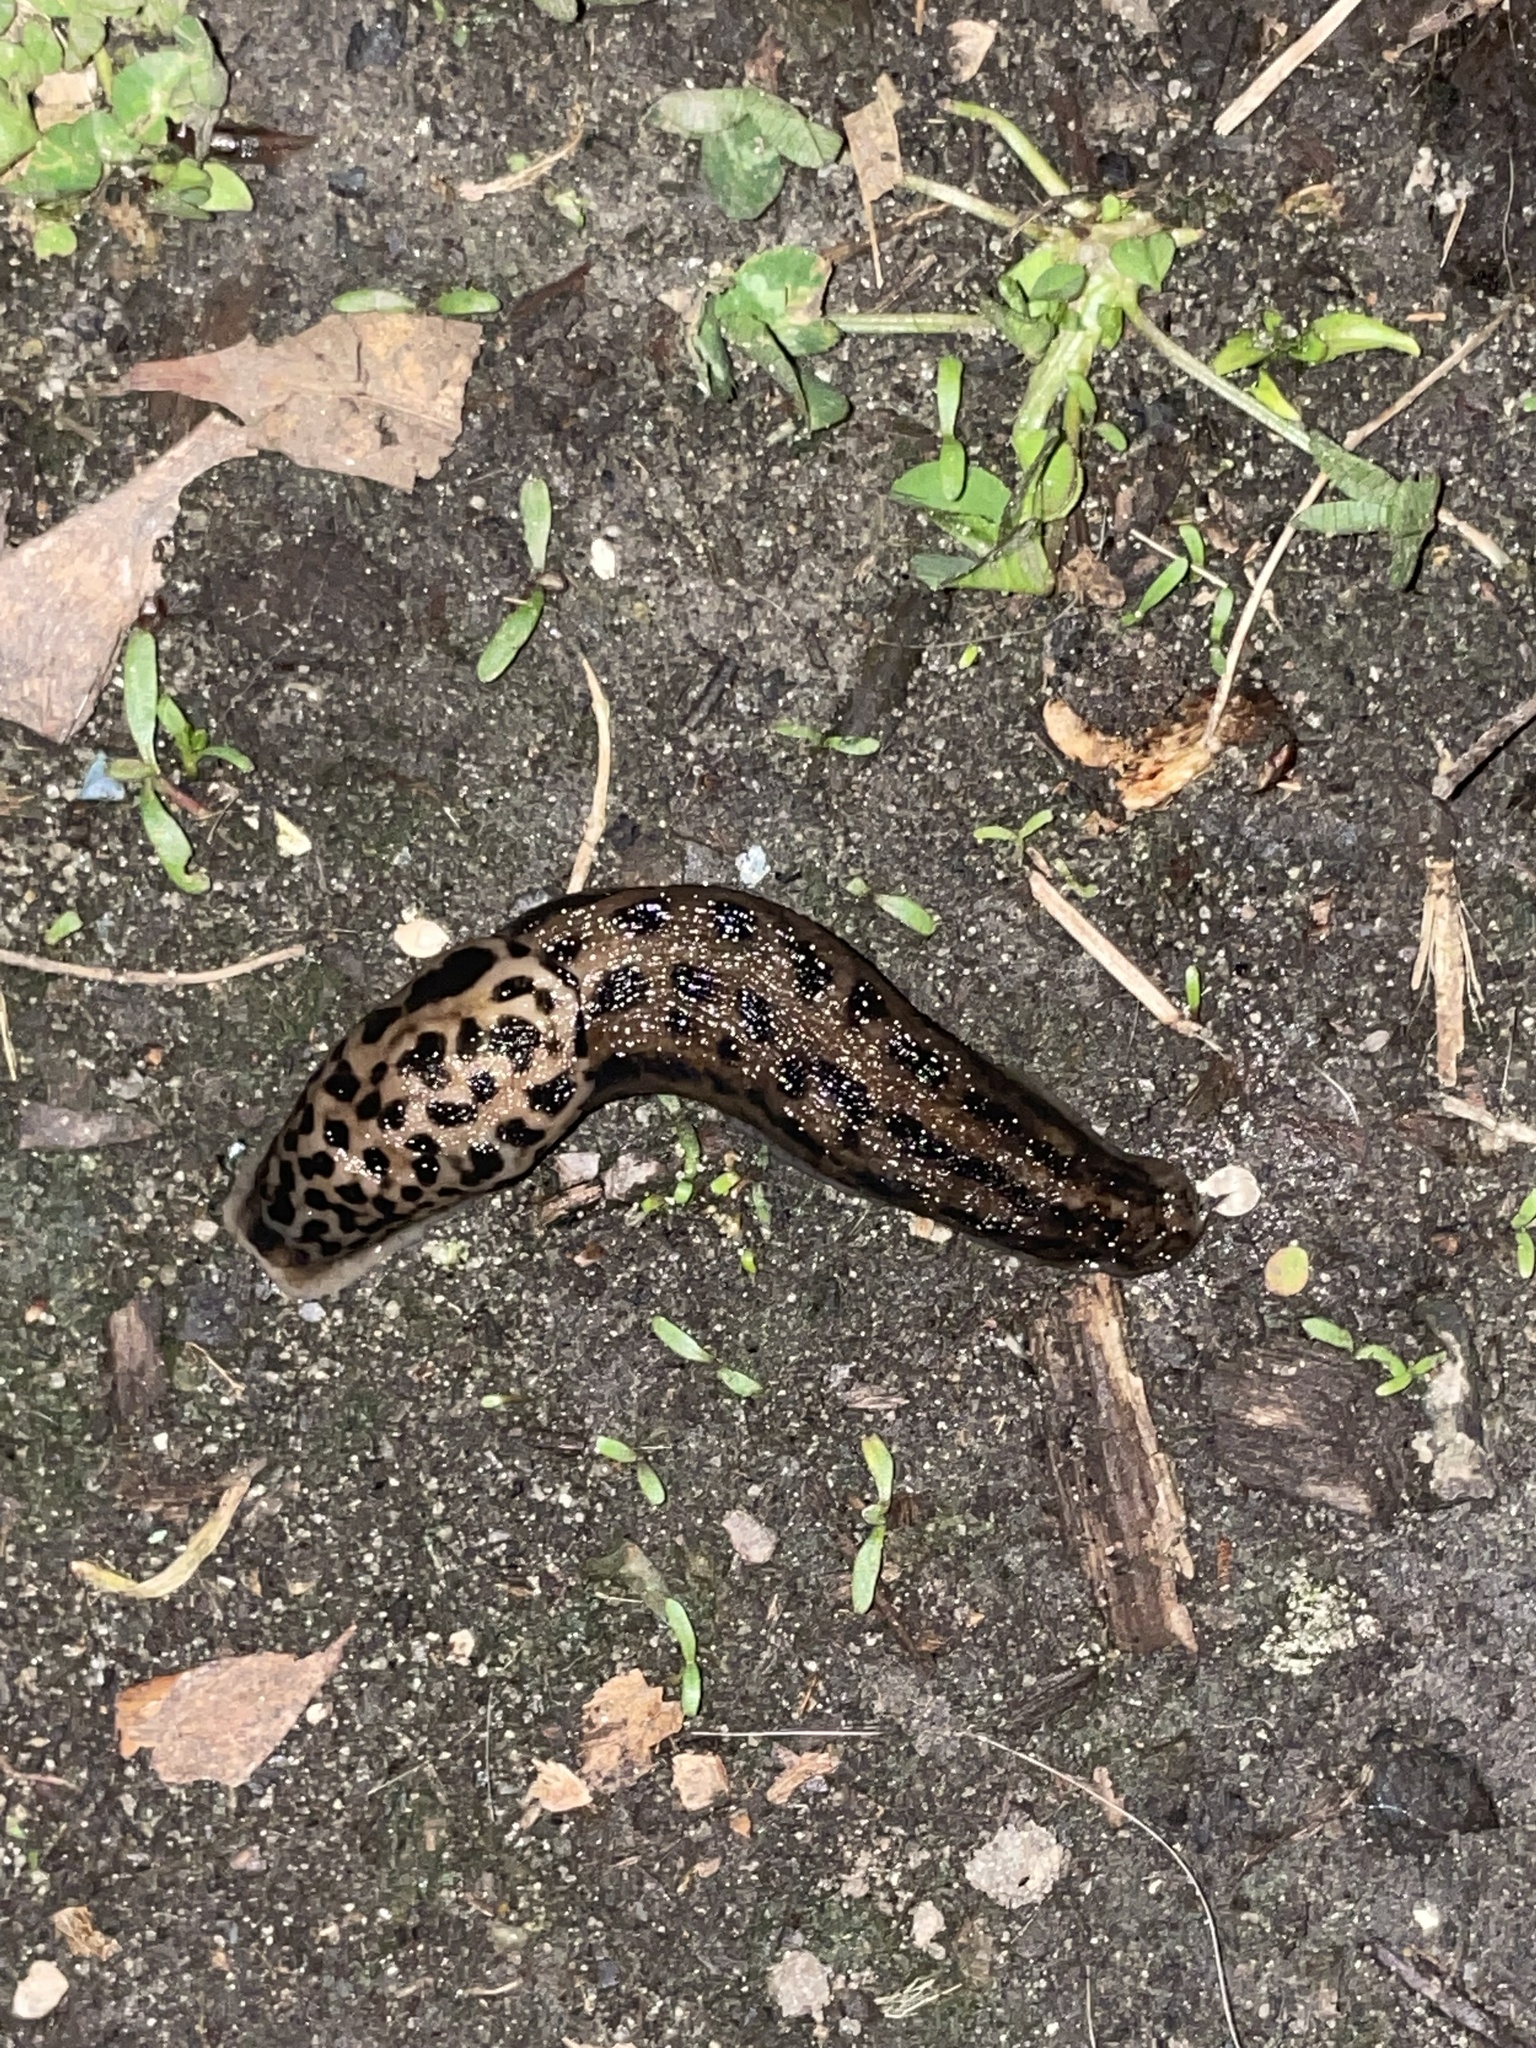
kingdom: Animalia
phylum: Mollusca
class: Gastropoda
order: Stylommatophora
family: Limacidae
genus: Limax
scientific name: Limax maximus
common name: Great grey slug
